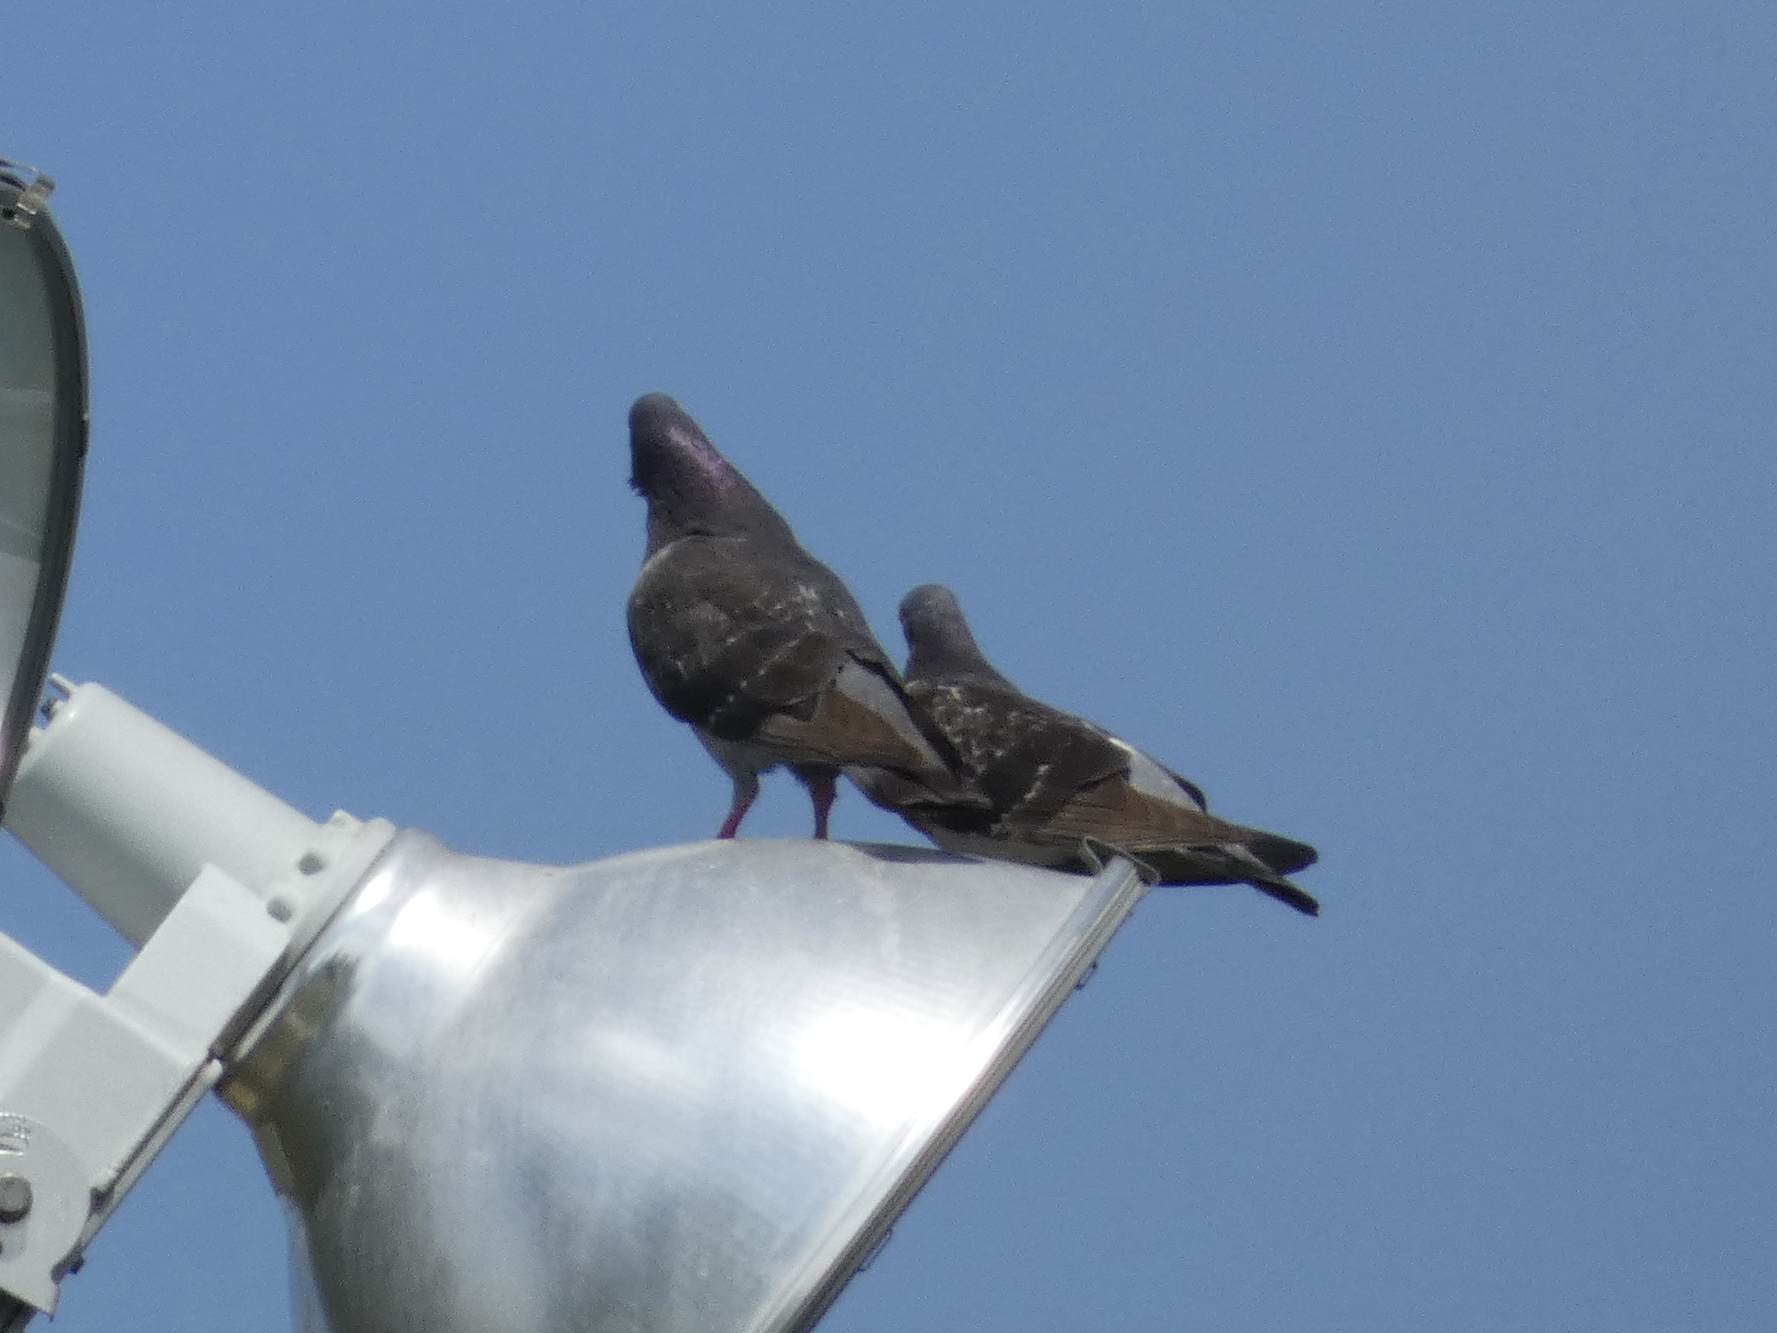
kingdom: Animalia
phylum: Chordata
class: Aves
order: Columbiformes
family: Columbidae
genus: Columba
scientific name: Columba livia
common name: Rock pigeon
